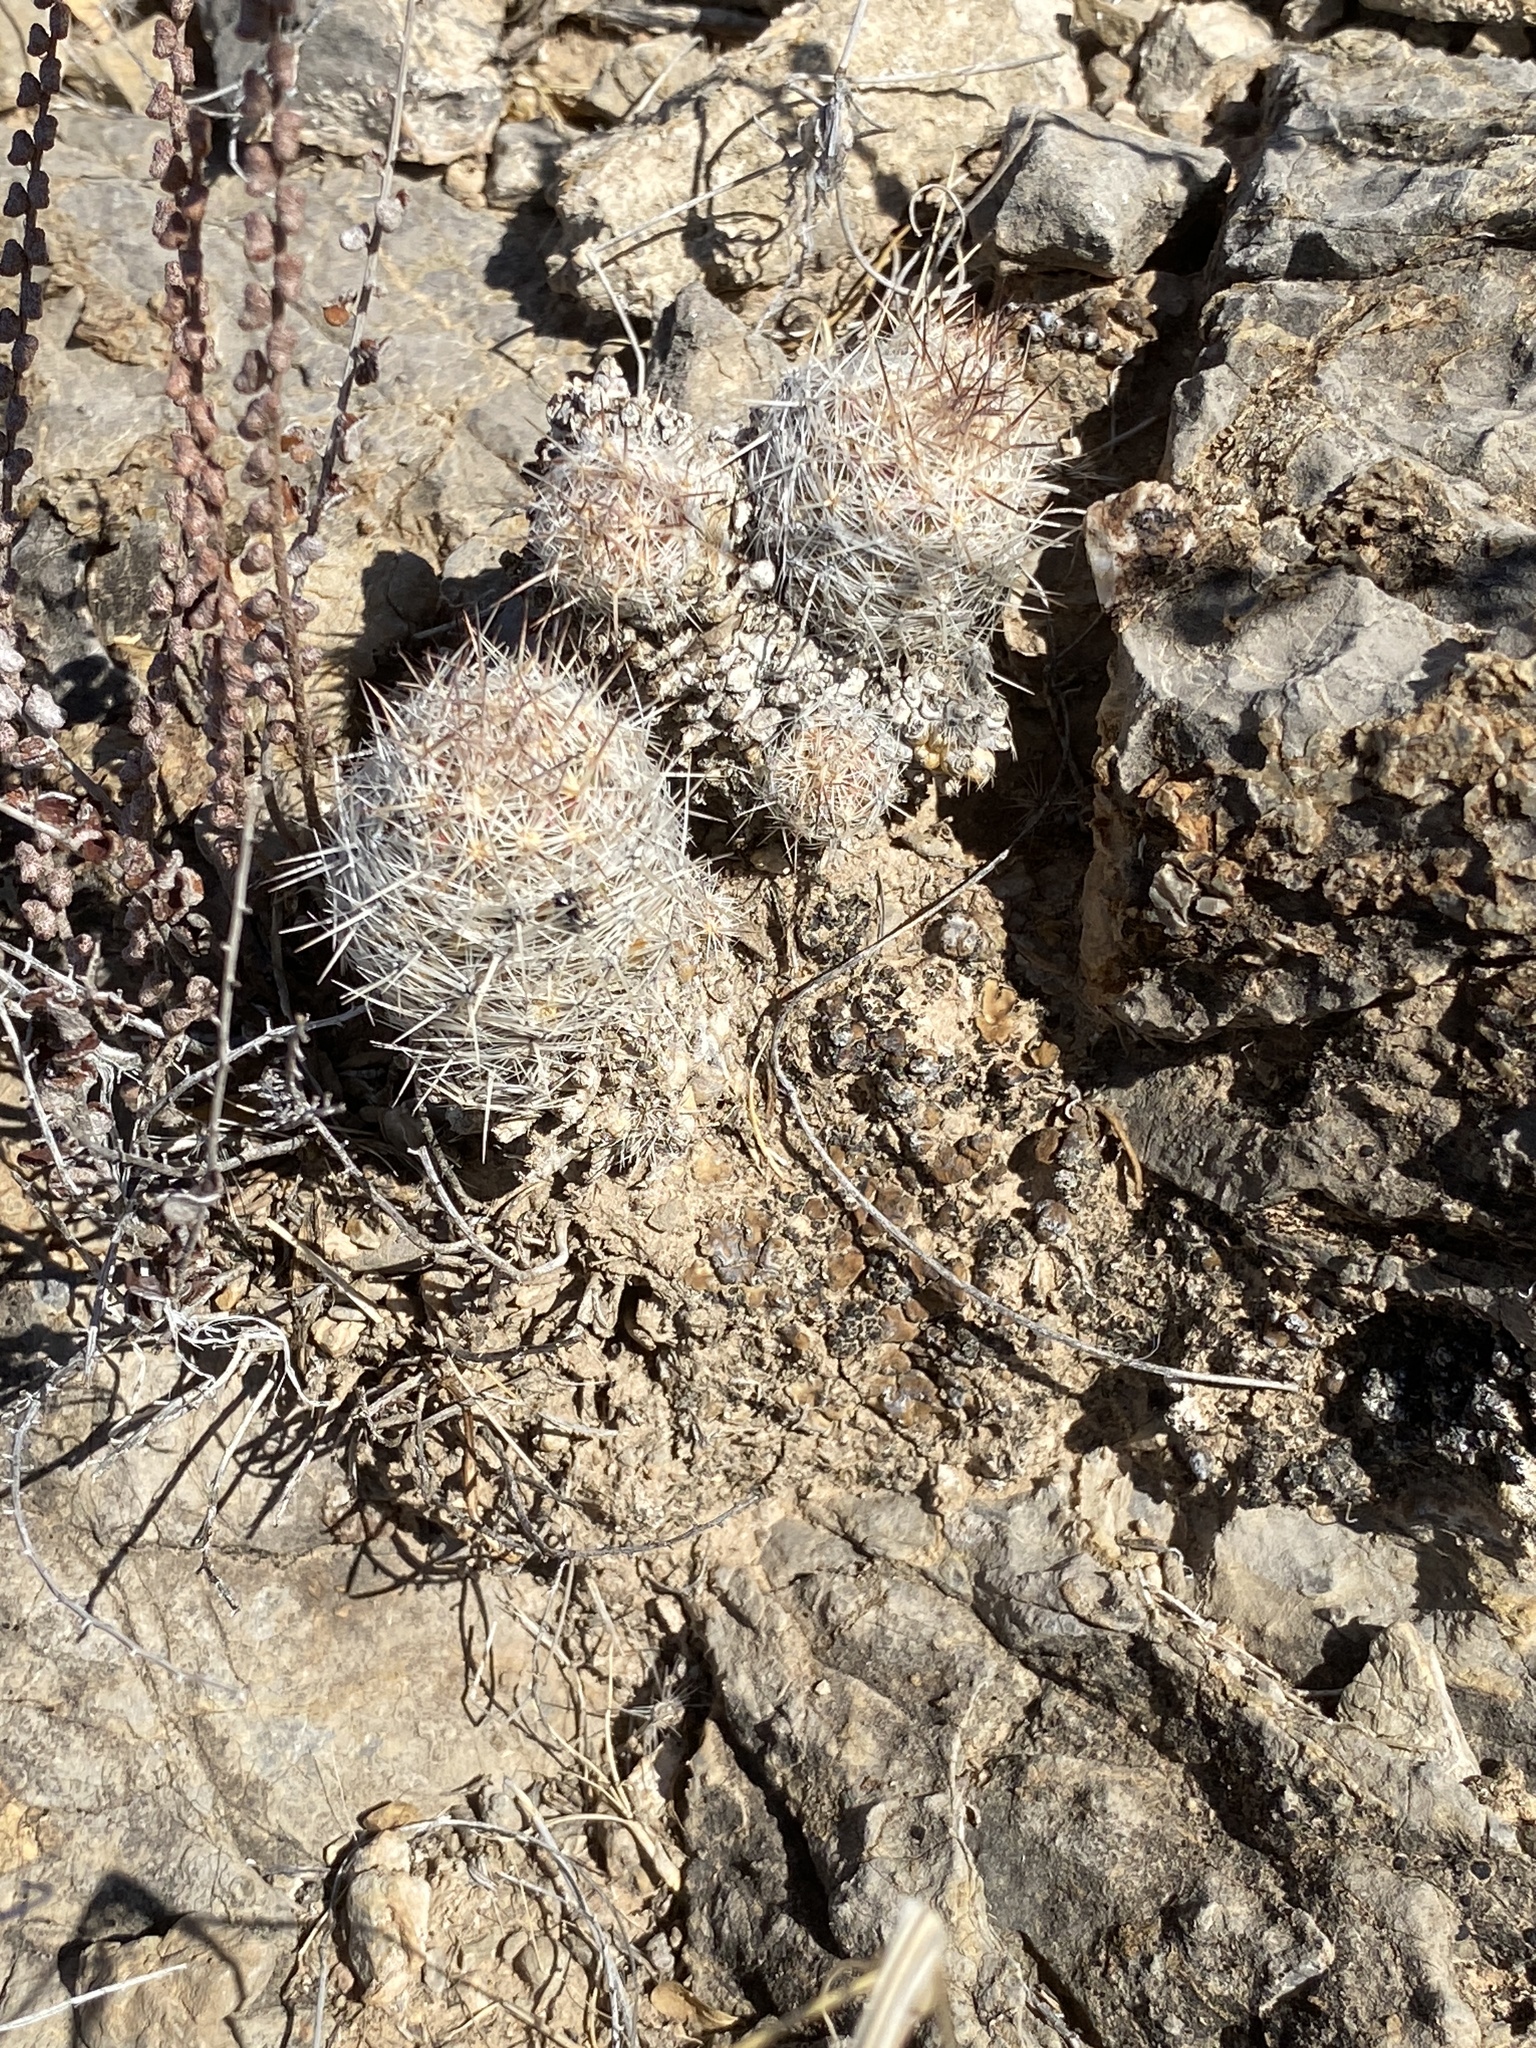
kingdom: Plantae
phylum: Tracheophyta
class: Magnoliopsida
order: Caryophyllales
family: Cactaceae
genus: Pelecyphora
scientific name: Pelecyphora tuberculosa
